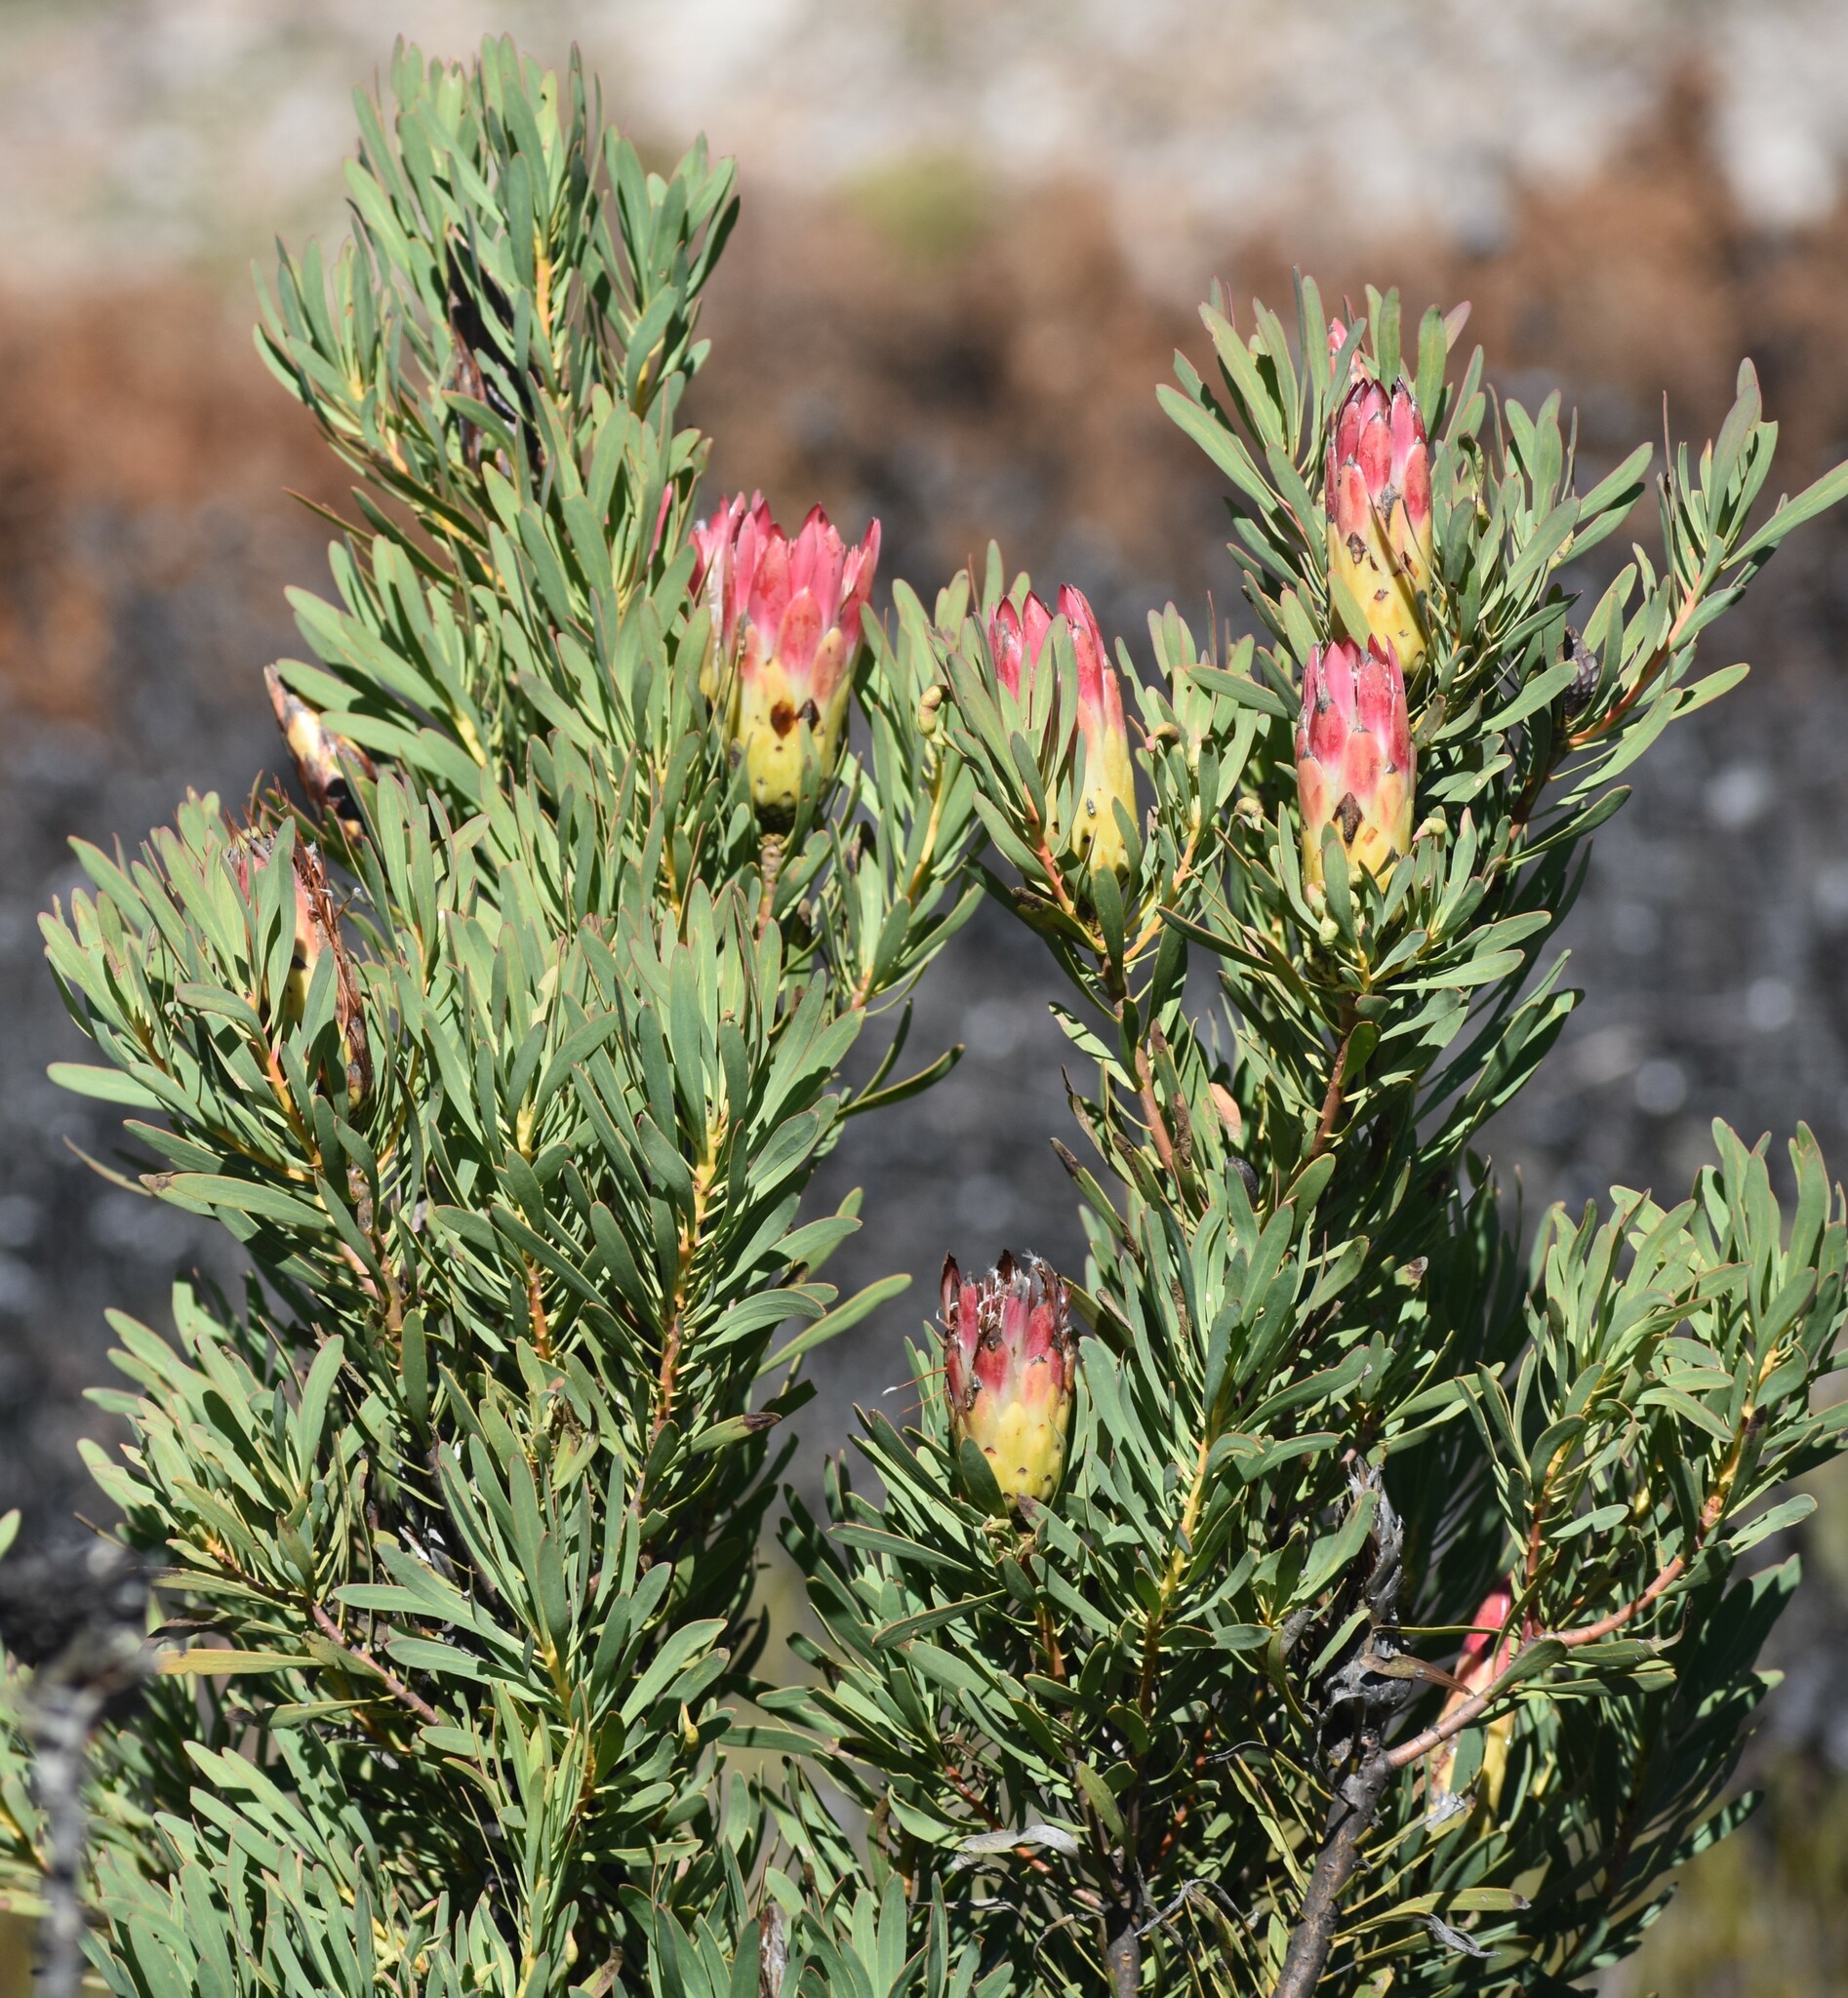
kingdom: Plantae
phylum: Tracheophyta
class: Magnoliopsida
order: Proteales
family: Proteaceae
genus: Protea
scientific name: Protea repens
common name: Sugarbush
